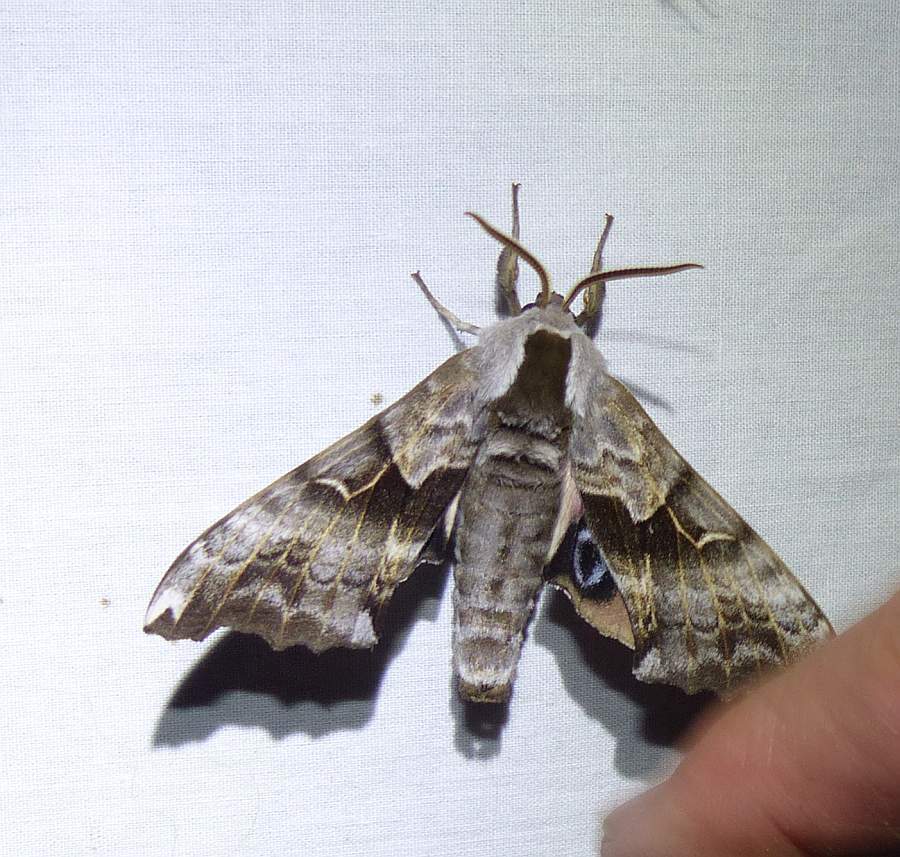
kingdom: Animalia
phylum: Arthropoda
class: Insecta
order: Lepidoptera
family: Sphingidae
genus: Smerinthus
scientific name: Smerinthus cerisyi
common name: Cerisy's sphinx moth
